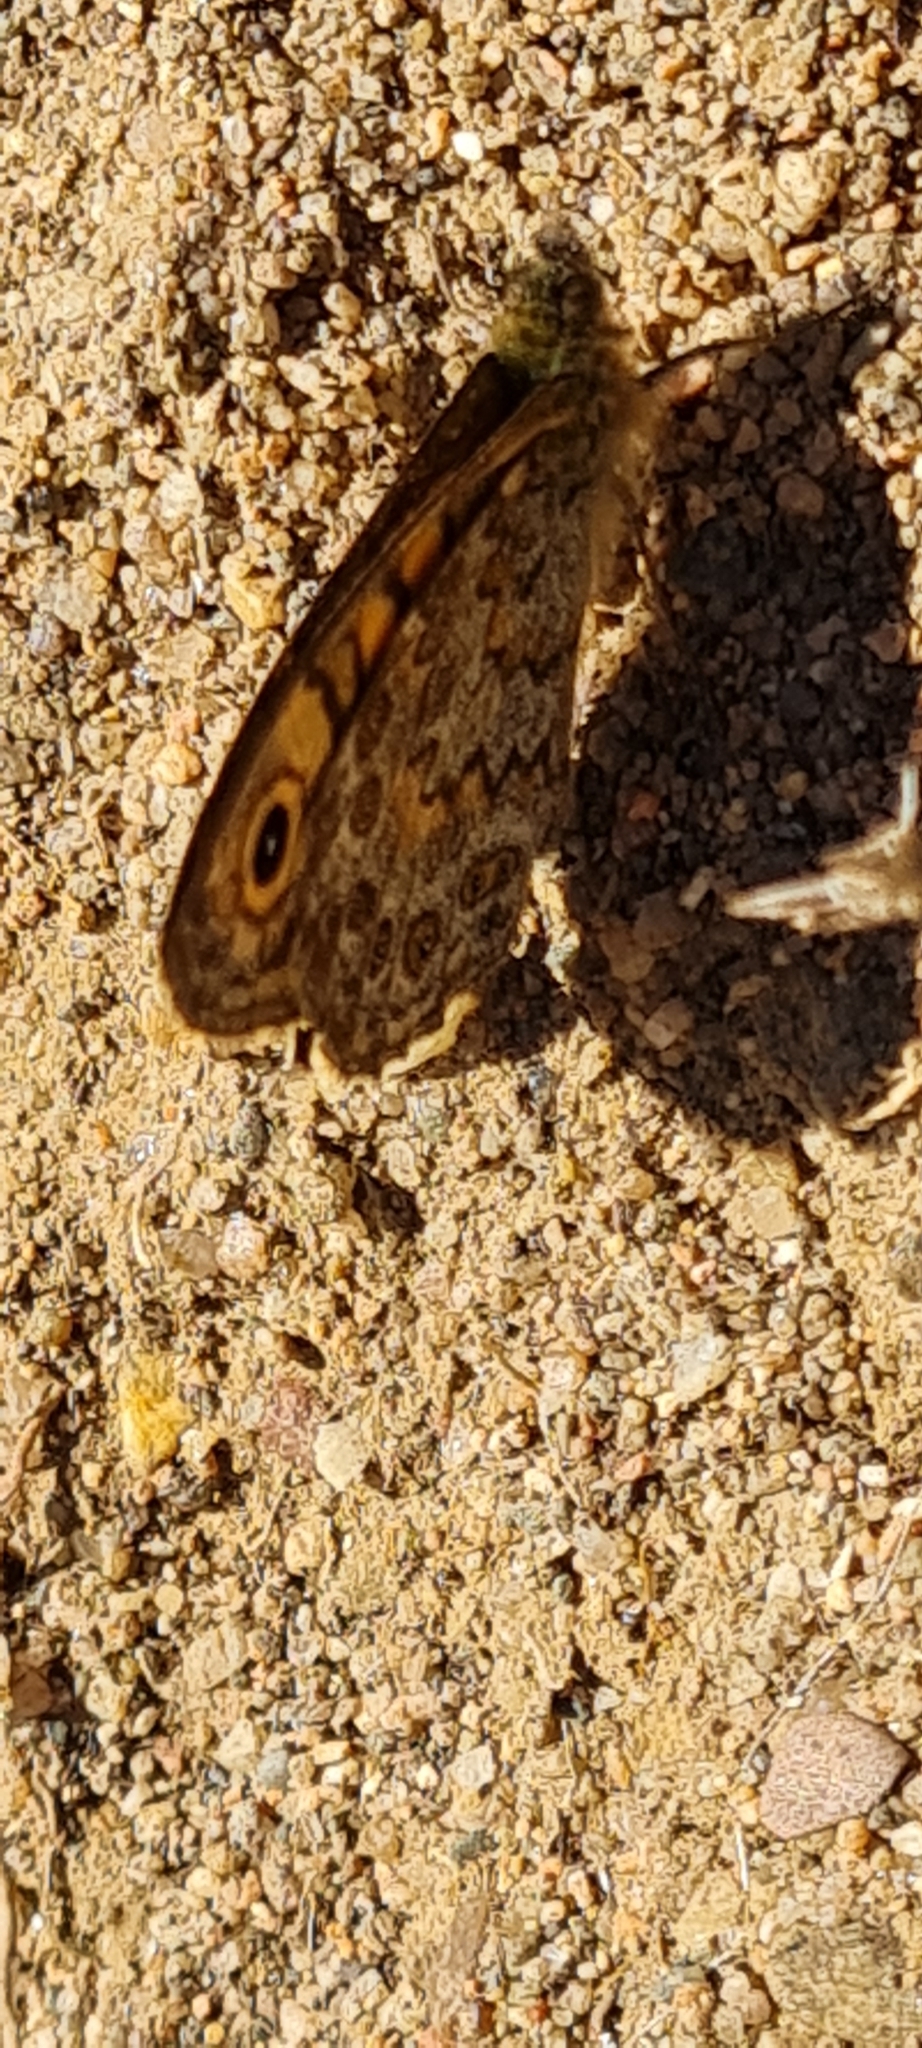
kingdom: Animalia
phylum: Arthropoda
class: Insecta
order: Lepidoptera
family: Nymphalidae
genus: Pararge
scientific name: Pararge Lasiommata megera
